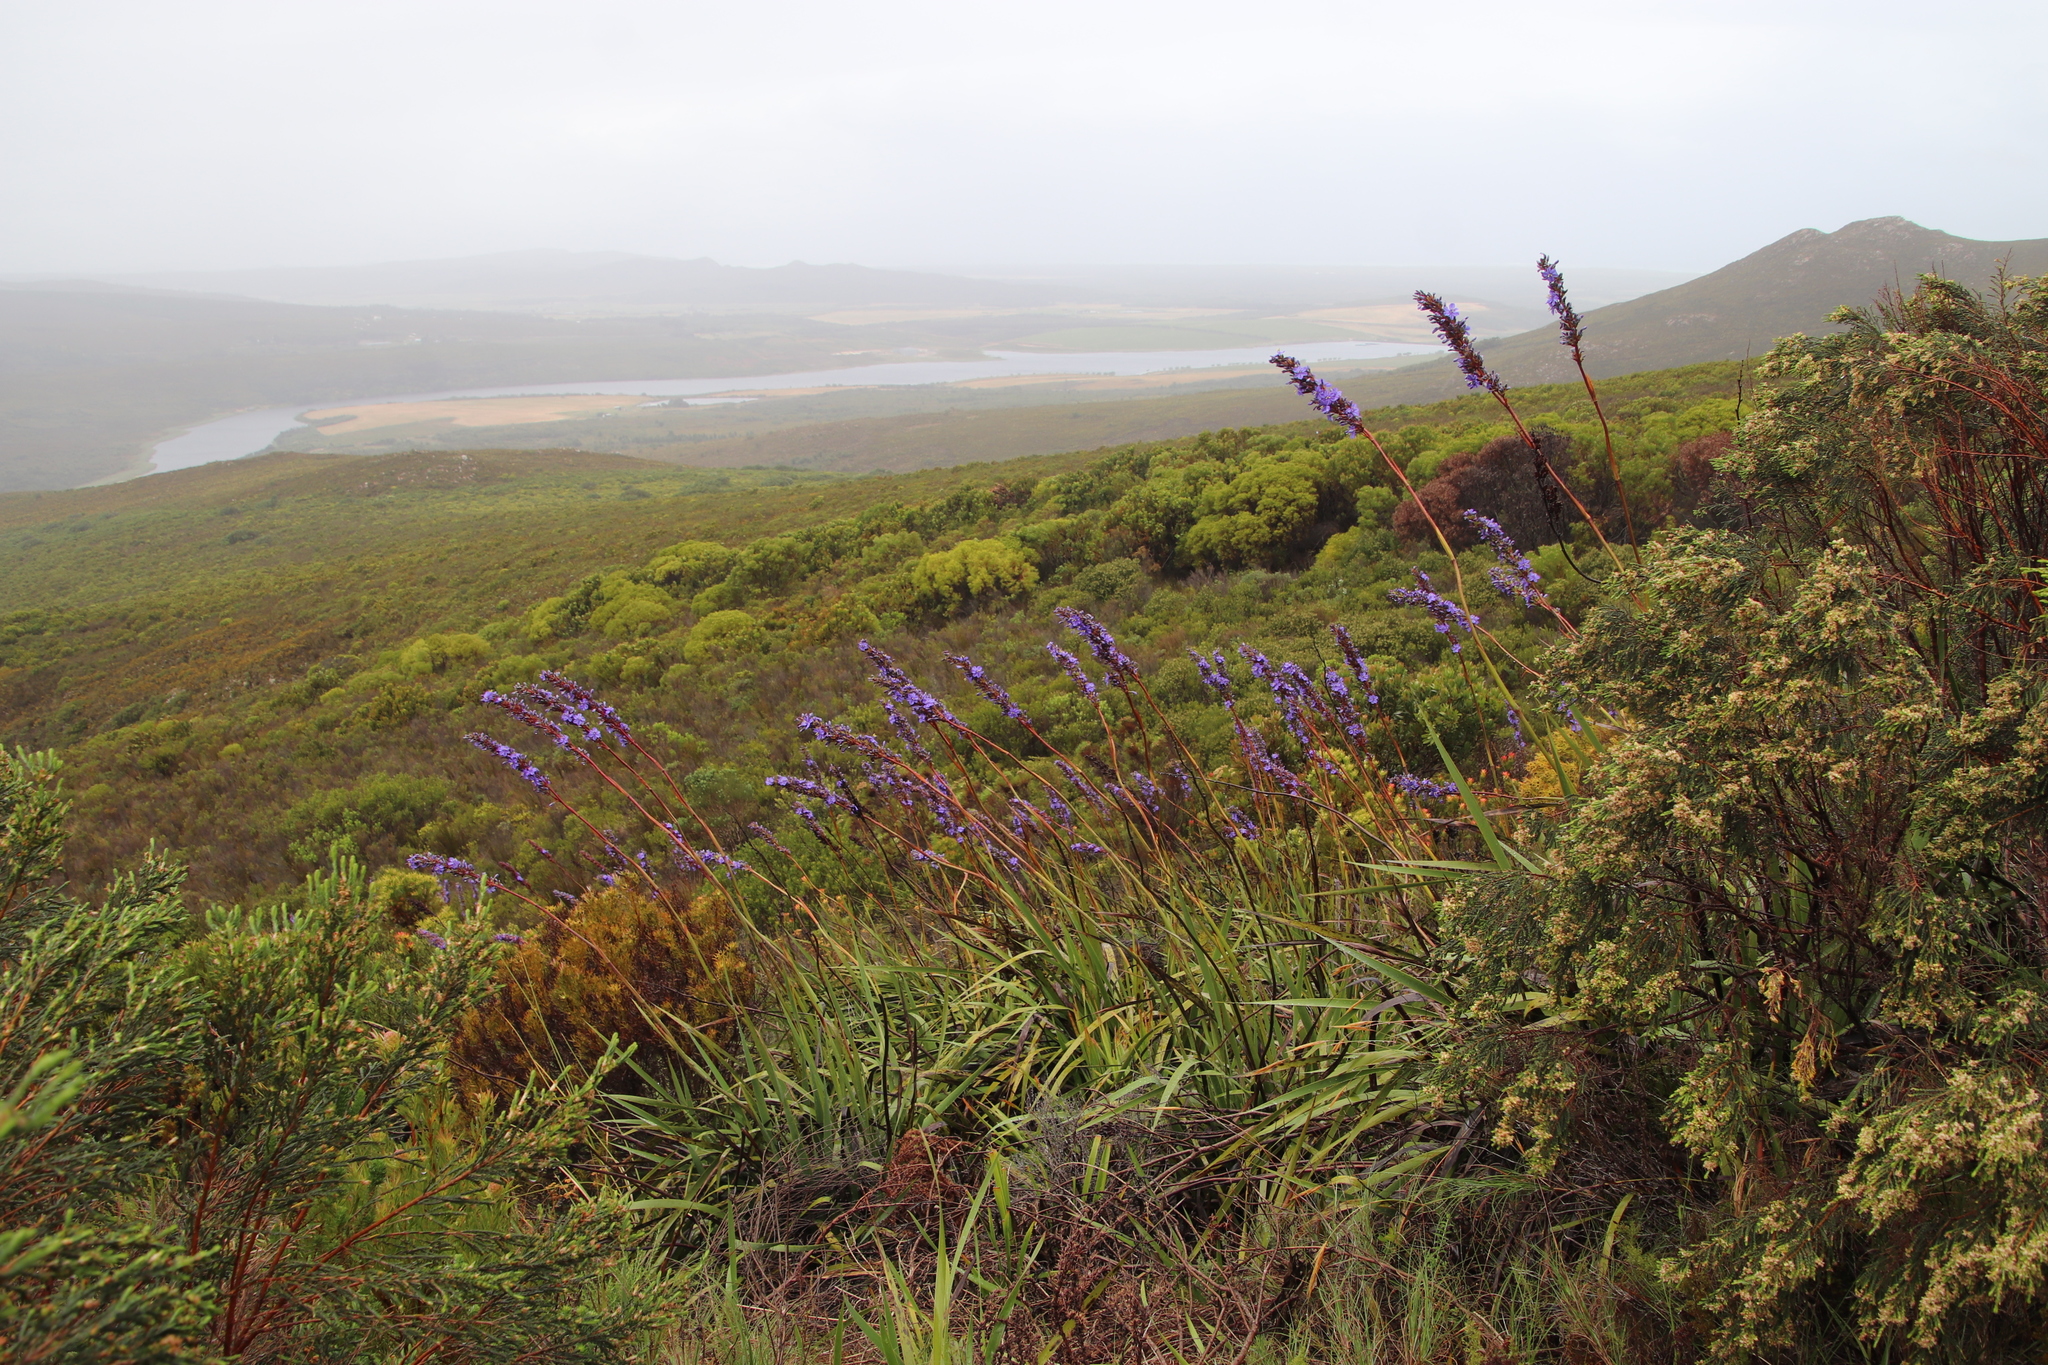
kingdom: Plantae
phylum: Tracheophyta
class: Liliopsida
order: Asparagales
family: Iridaceae
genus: Aristea
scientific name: Aristea capitata
